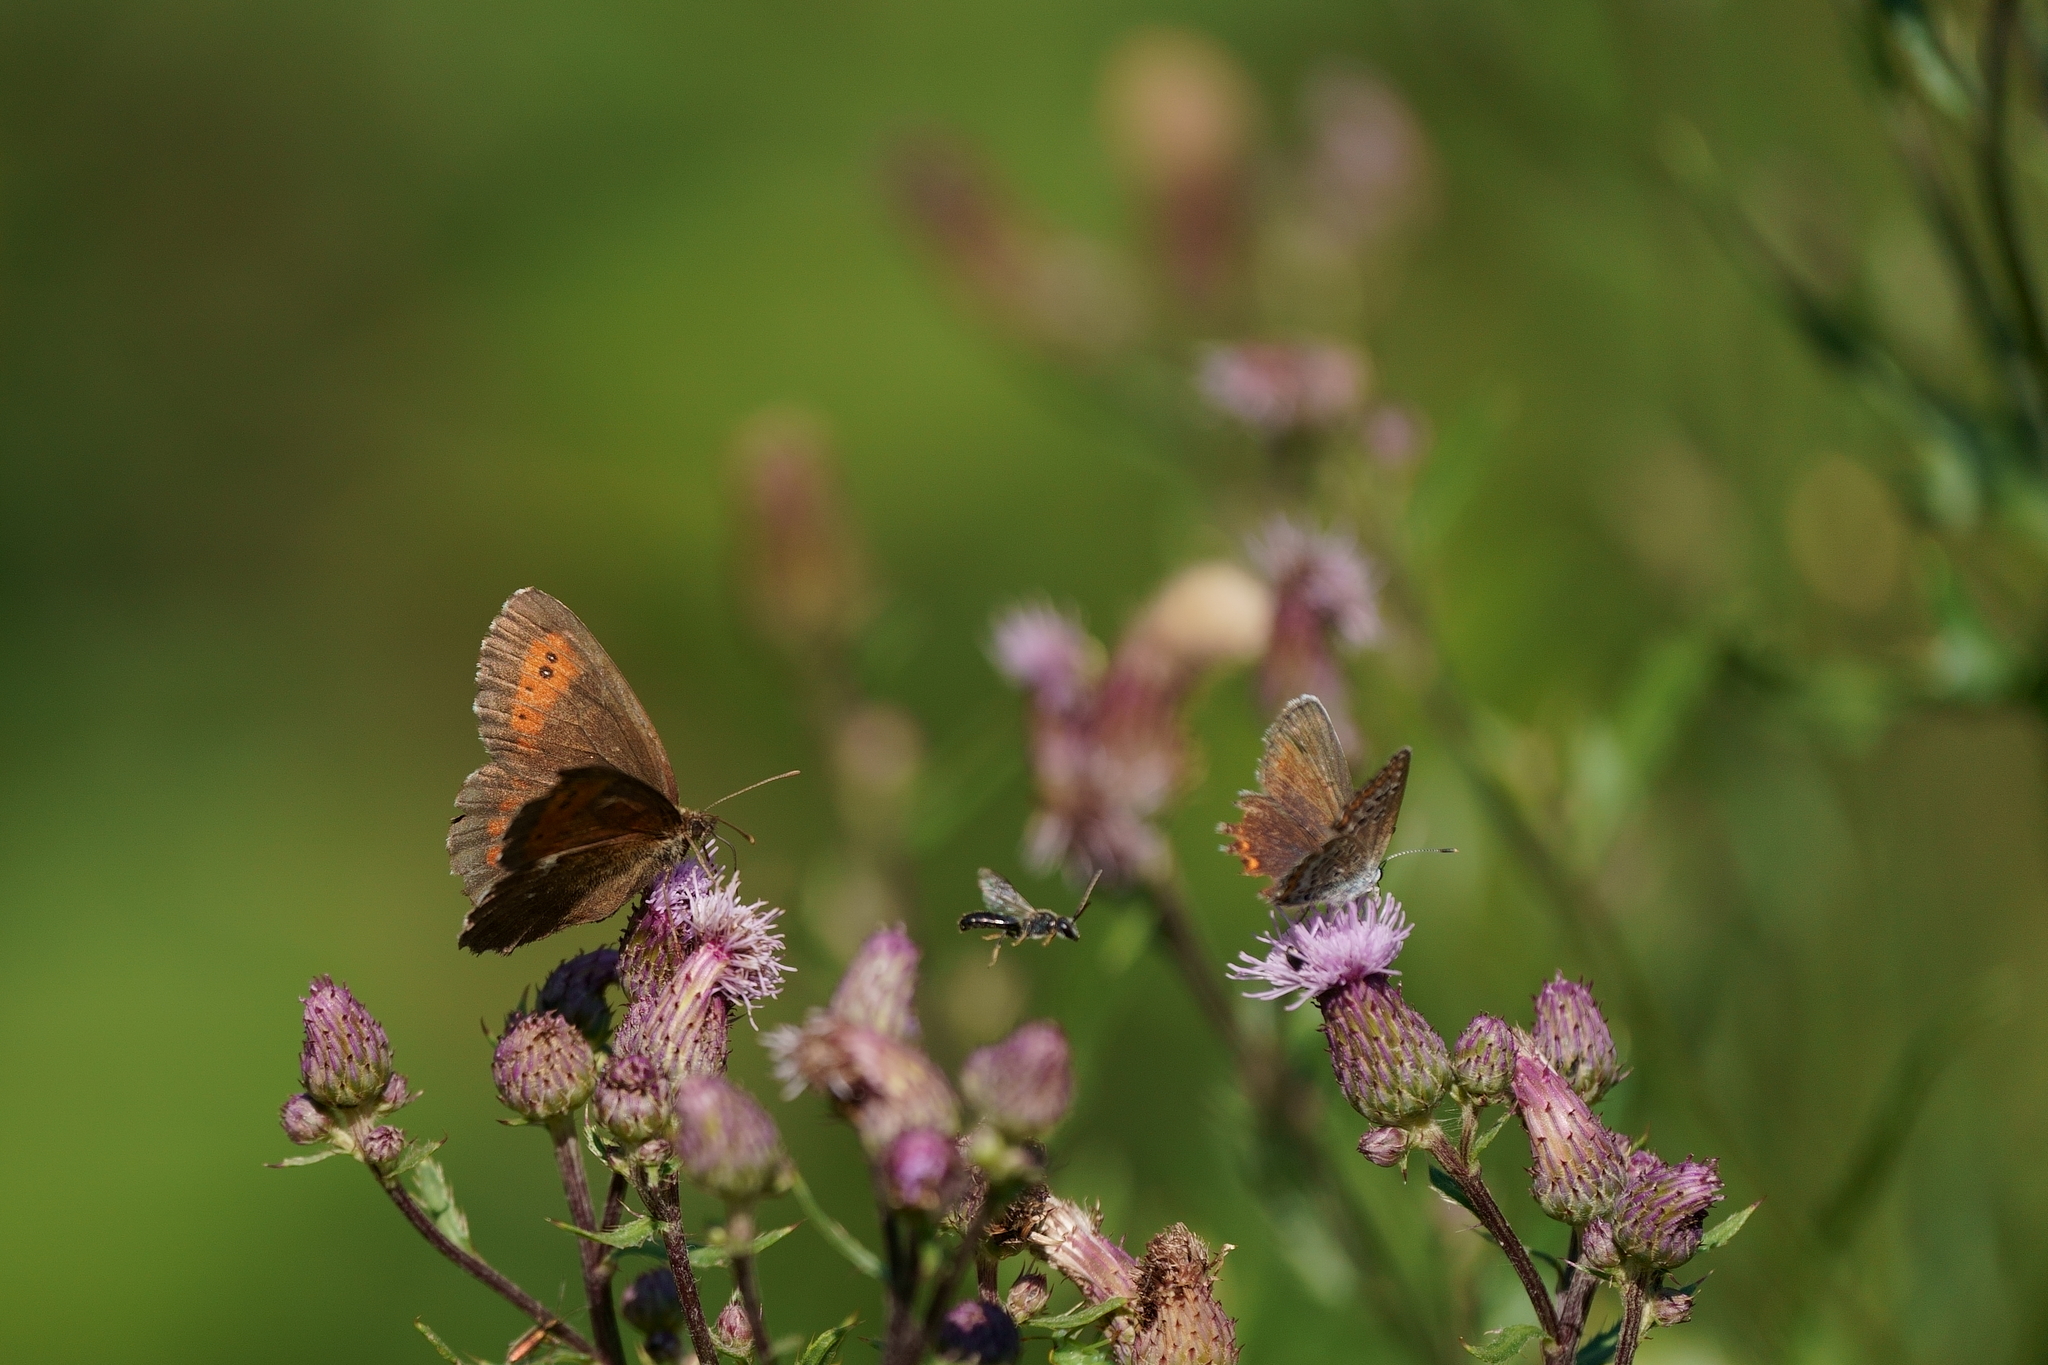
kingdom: Animalia
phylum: Arthropoda
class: Insecta
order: Lepidoptera
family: Nymphalidae
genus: Erebia
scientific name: Erebia ligea
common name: Arran brown
